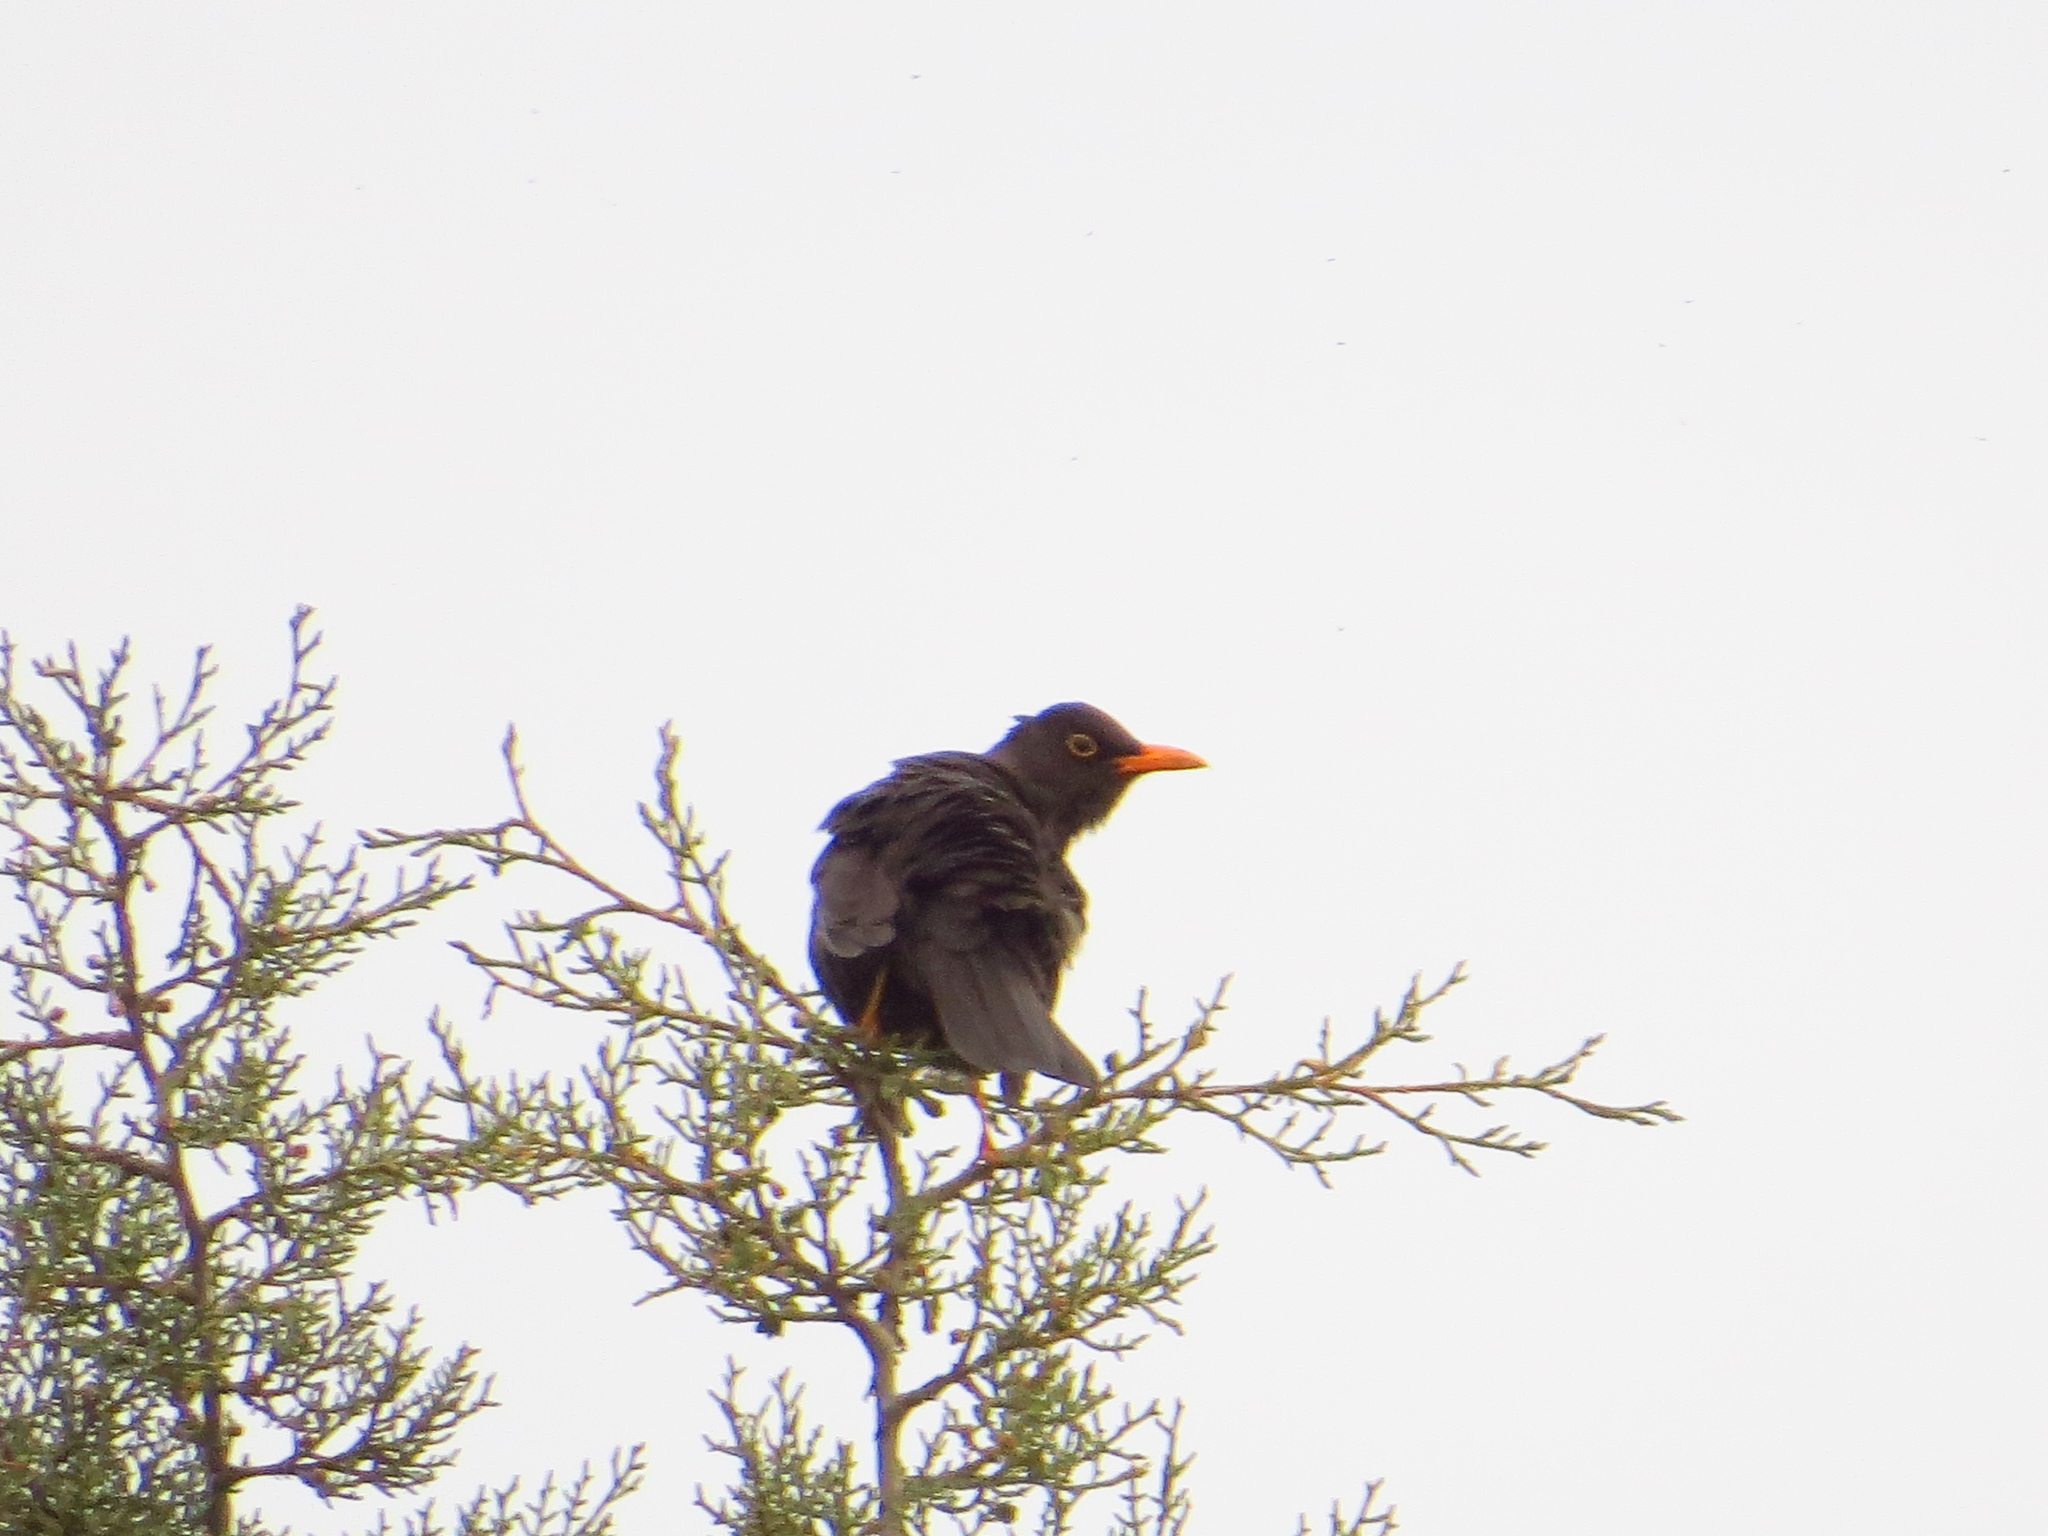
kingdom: Animalia
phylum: Chordata
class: Aves
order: Passeriformes
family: Turdidae
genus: Turdus
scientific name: Turdus chiguanco
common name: Chiguanco thrush
